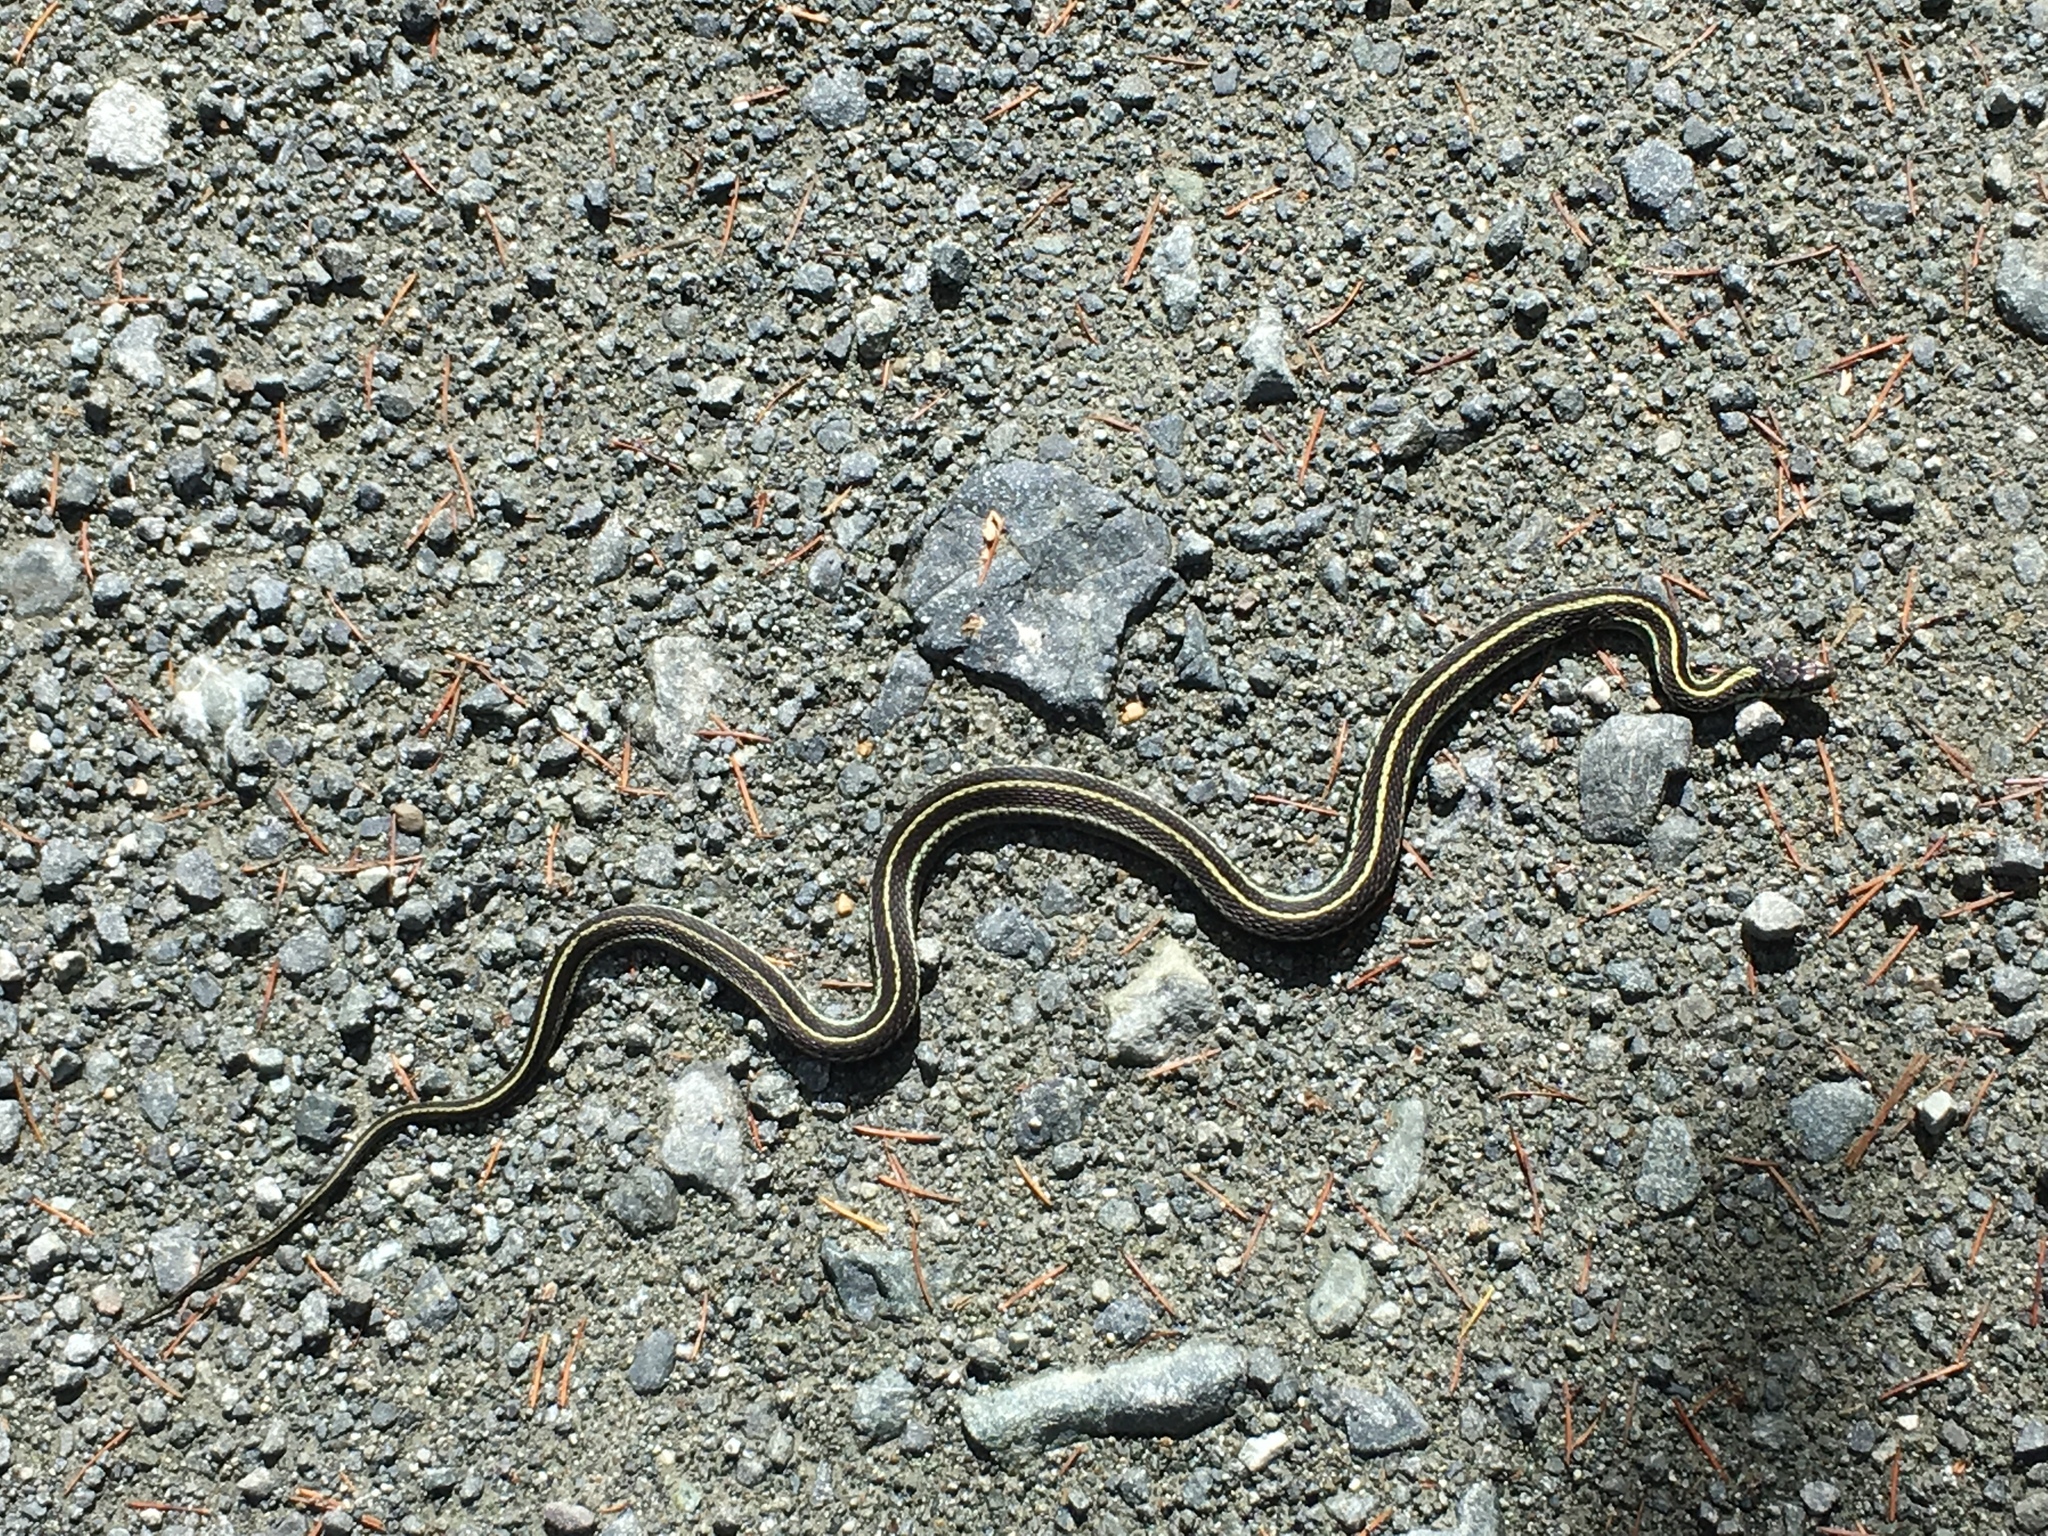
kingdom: Animalia
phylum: Chordata
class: Squamata
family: Colubridae
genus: Thamnophis
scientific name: Thamnophis sirtalis
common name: Common garter snake
